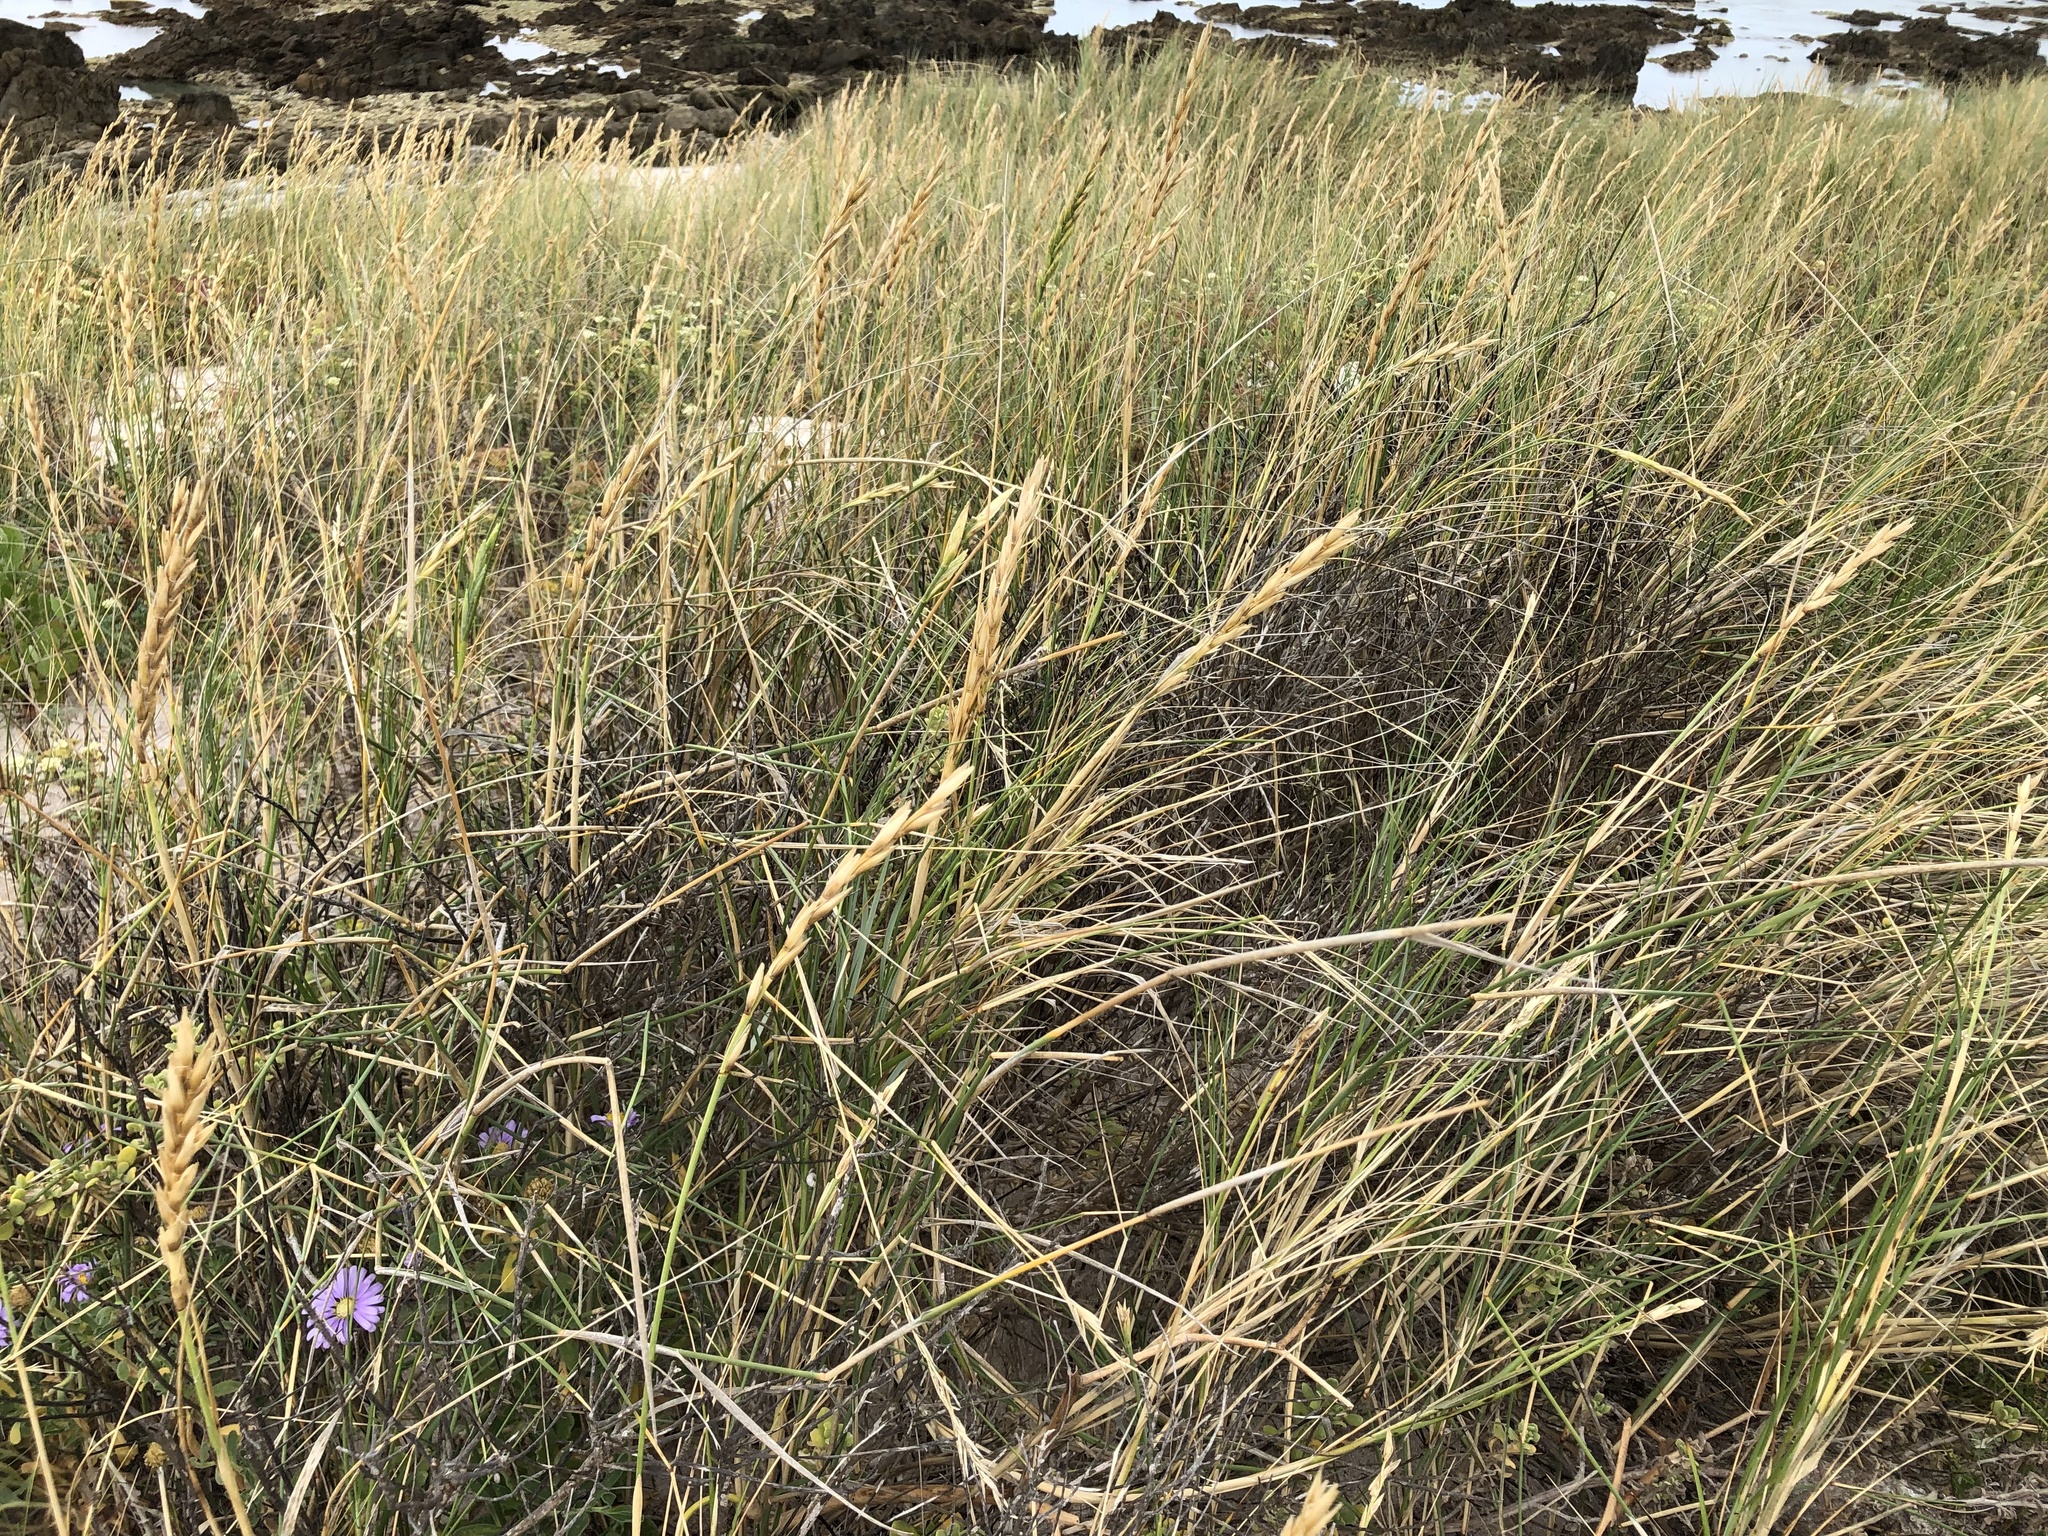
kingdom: Plantae
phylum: Tracheophyta
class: Liliopsida
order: Poales
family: Poaceae
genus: Thinopyrum
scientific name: Thinopyrum distichum
